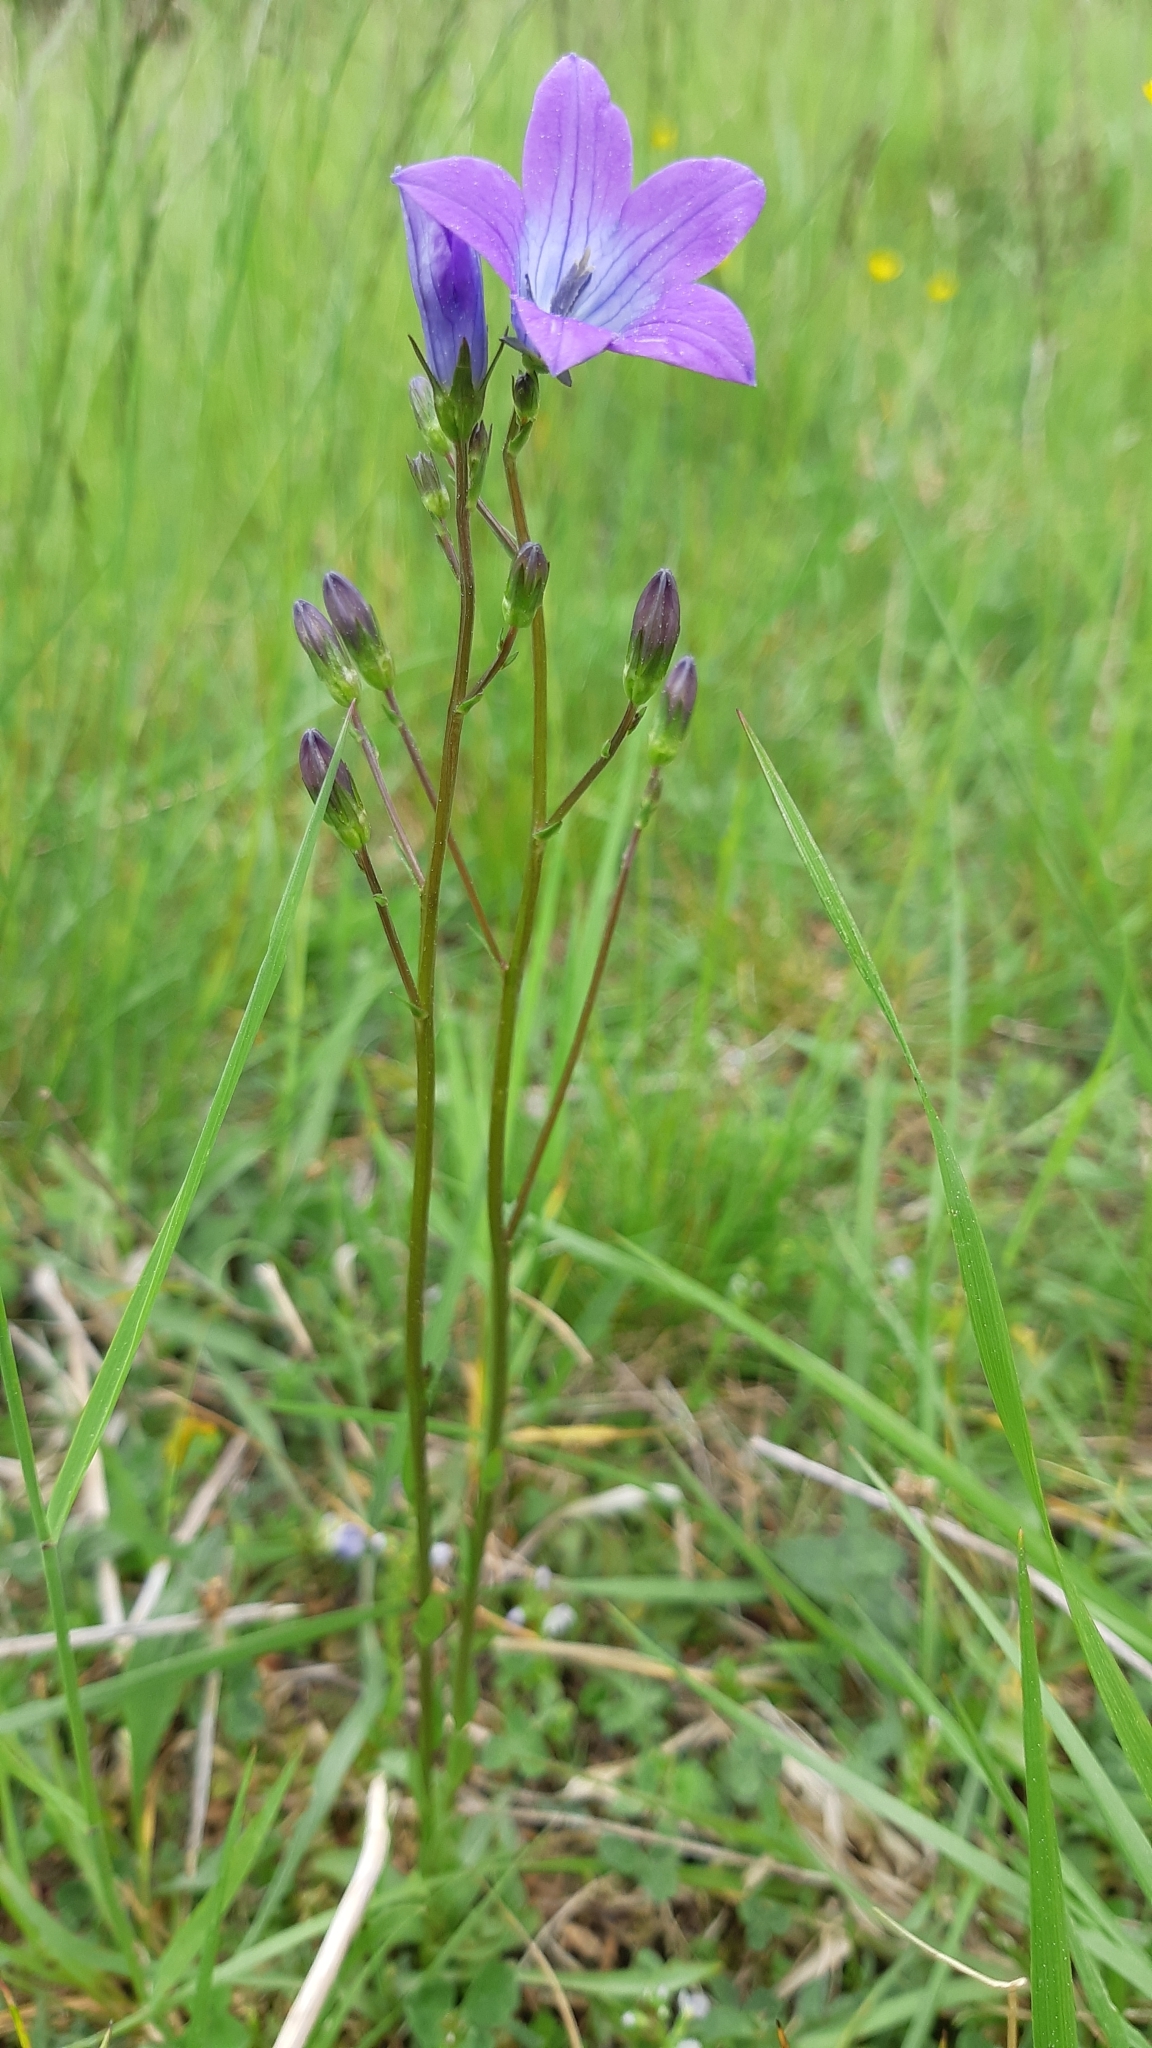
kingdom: Plantae
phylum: Tracheophyta
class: Magnoliopsida
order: Asterales
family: Campanulaceae
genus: Campanula
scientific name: Campanula patula
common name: Spreading bellflower
